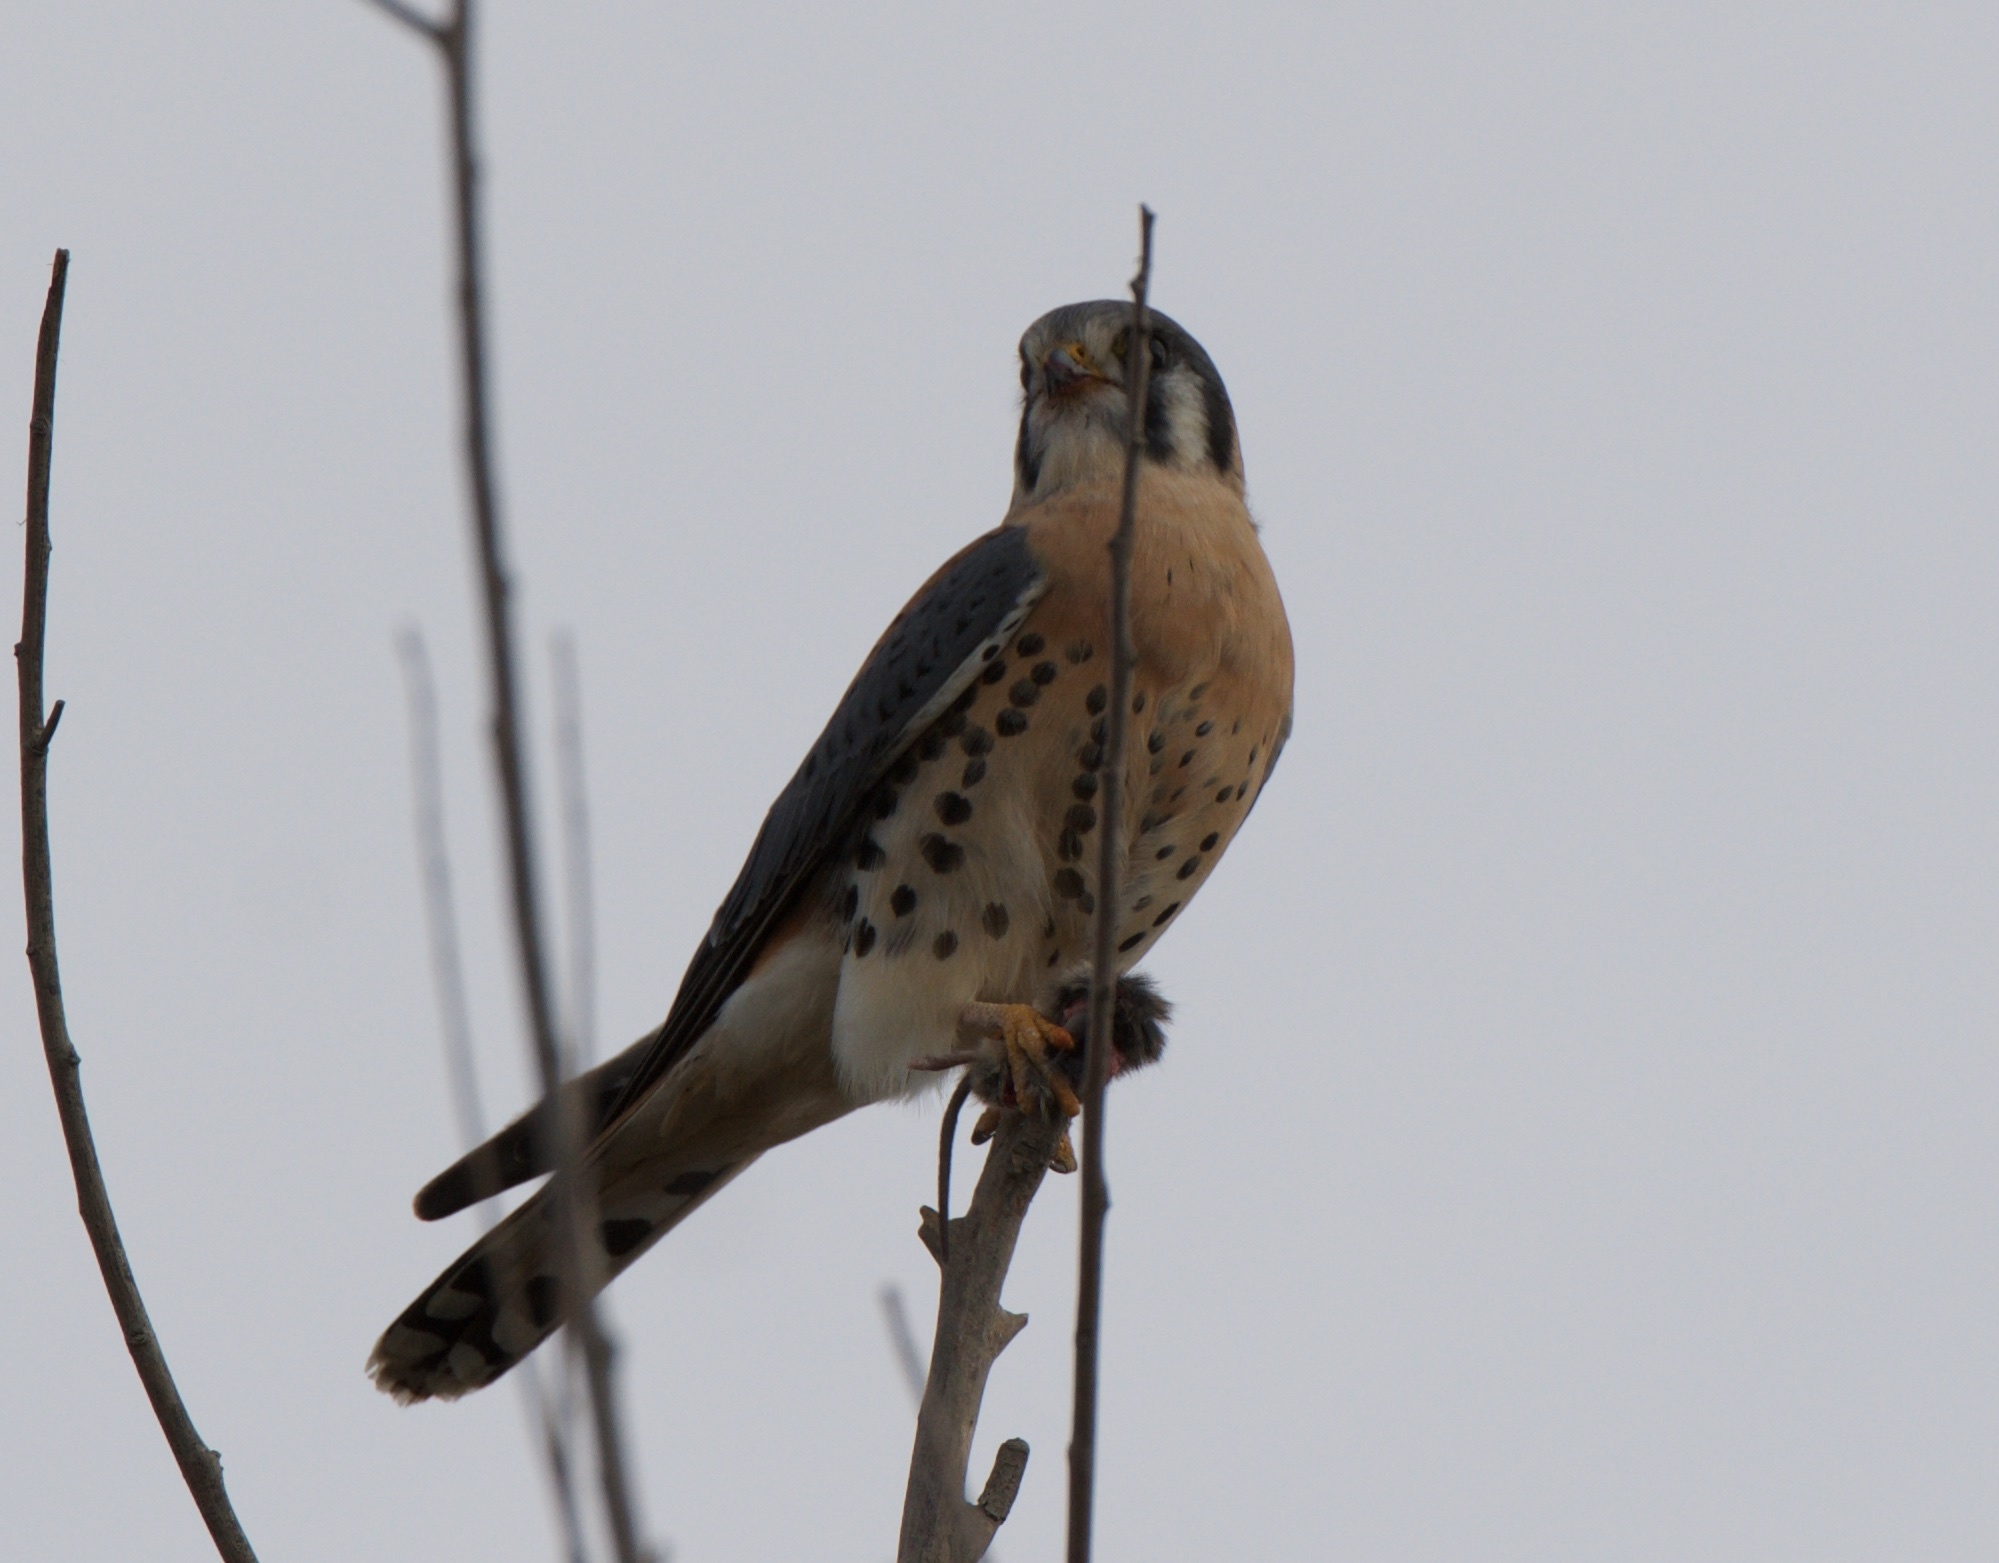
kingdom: Animalia
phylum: Chordata
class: Aves
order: Falconiformes
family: Falconidae
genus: Falco
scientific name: Falco sparverius
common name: American kestrel
